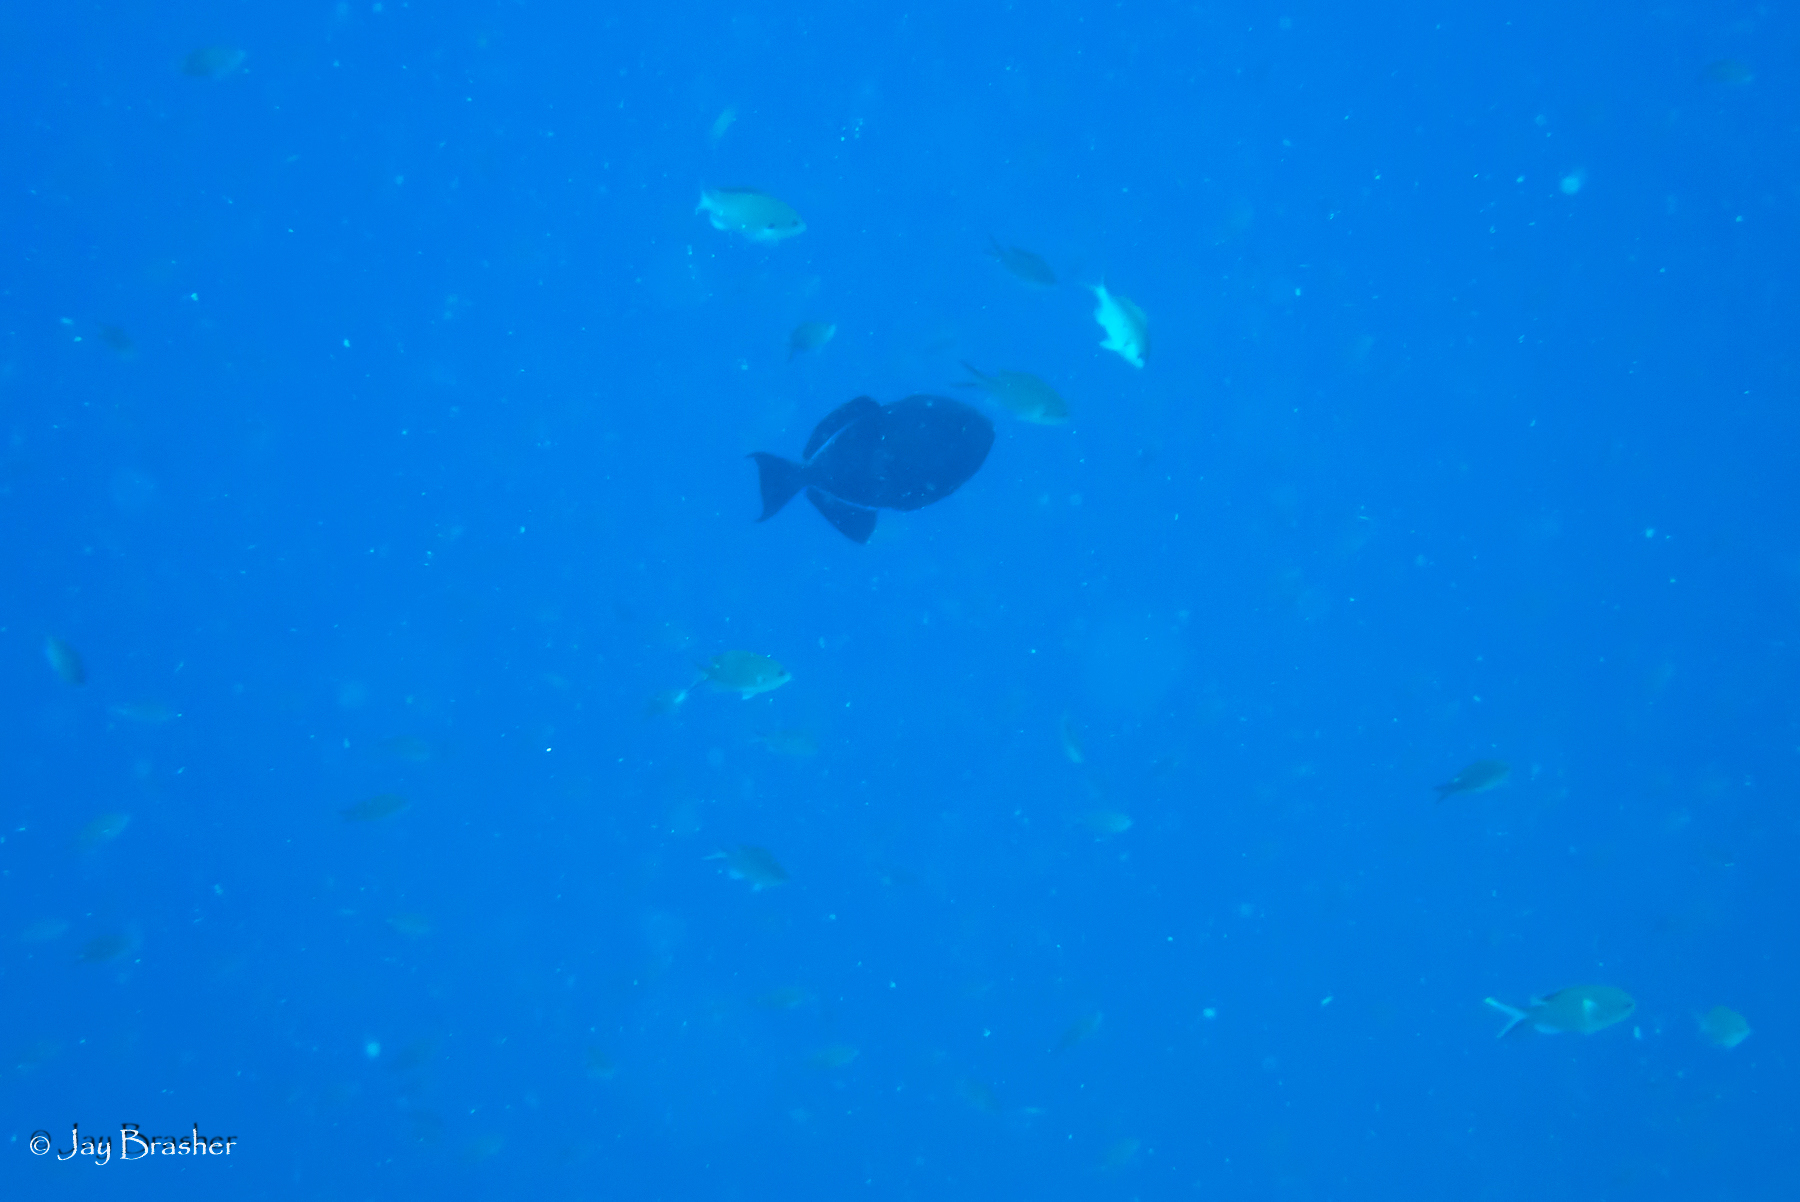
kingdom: Animalia
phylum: Chordata
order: Tetraodontiformes
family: Balistidae
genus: Melichthys
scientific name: Melichthys niger
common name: Black durgon
